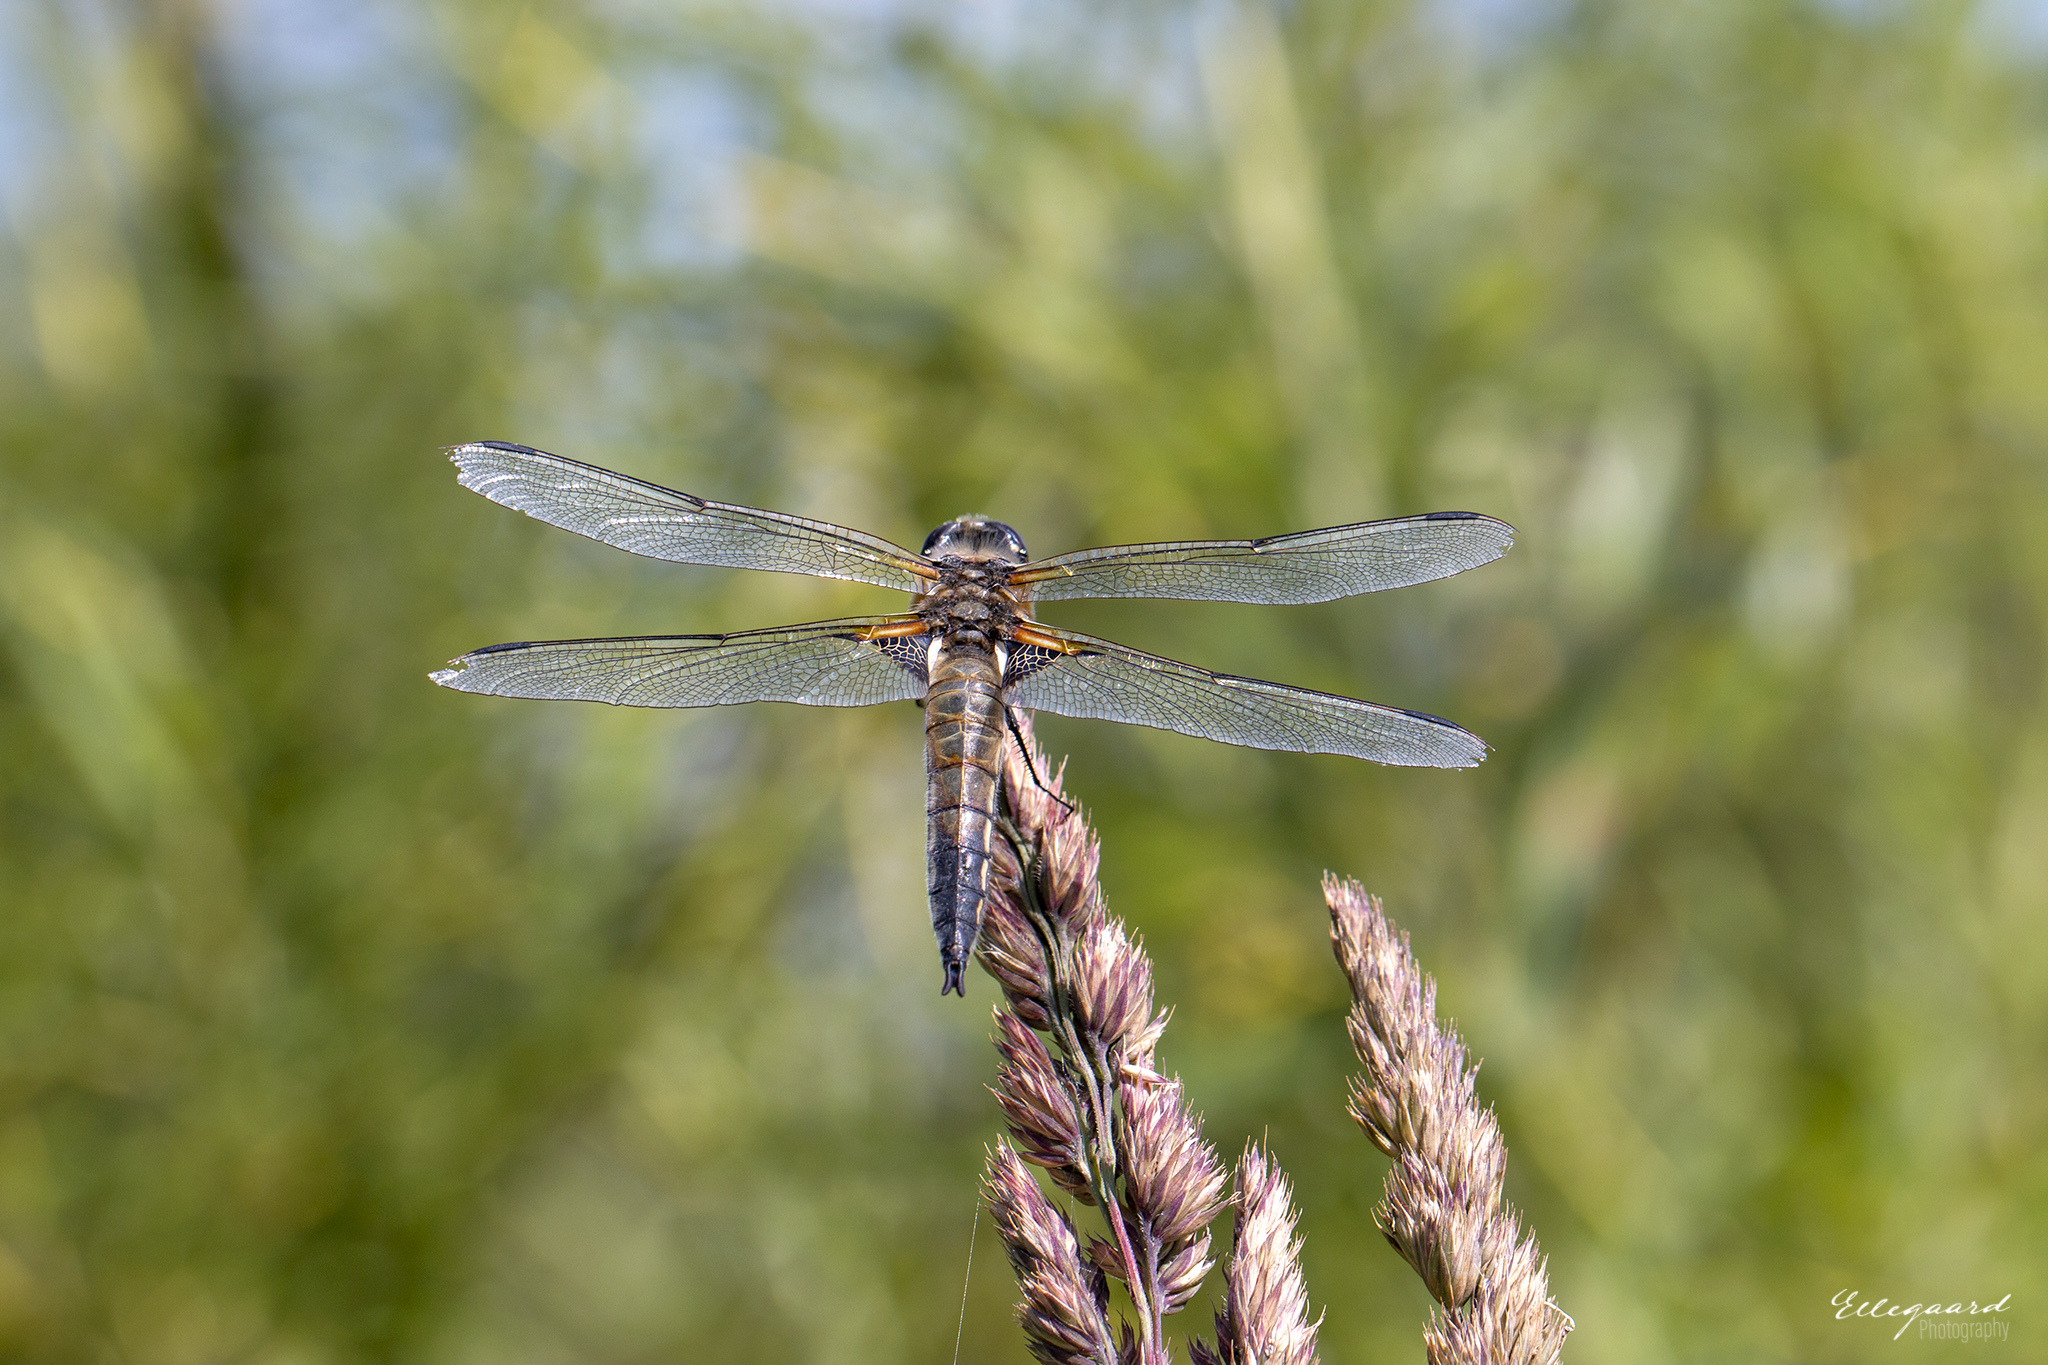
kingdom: Animalia
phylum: Arthropoda
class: Insecta
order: Odonata
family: Libellulidae
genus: Libellula
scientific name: Libellula quadrimaculata
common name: Four-spotted chaser
